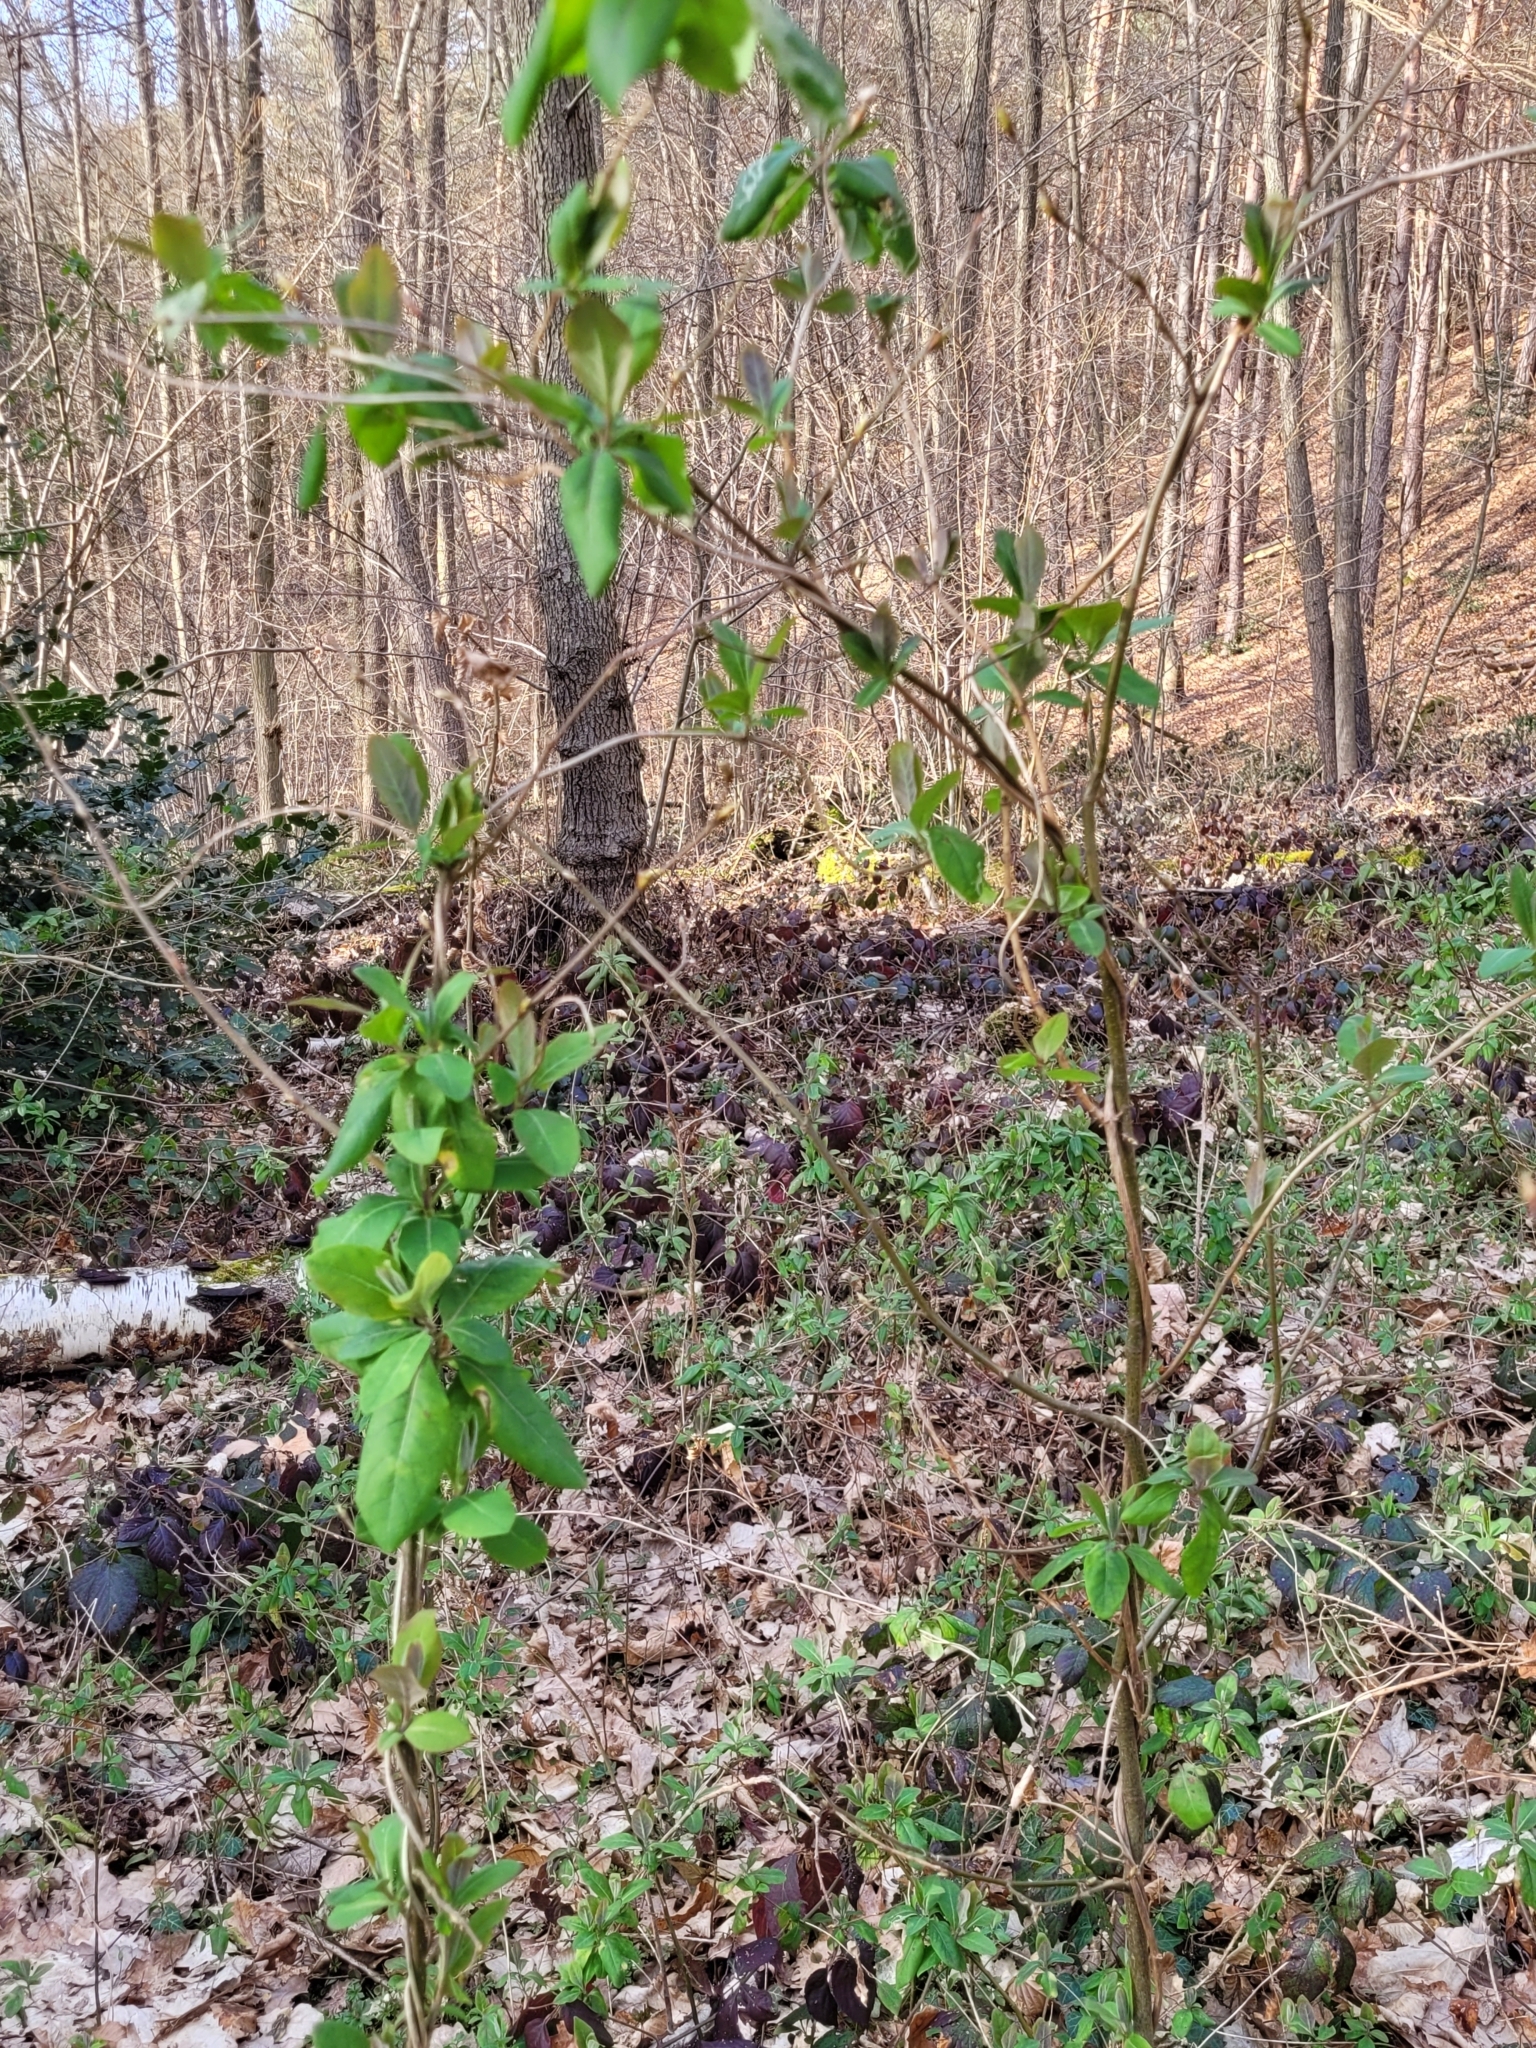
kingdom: Plantae
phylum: Tracheophyta
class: Magnoliopsida
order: Dipsacales
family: Caprifoliaceae
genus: Lonicera
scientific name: Lonicera periclymenum
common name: European honeysuckle
